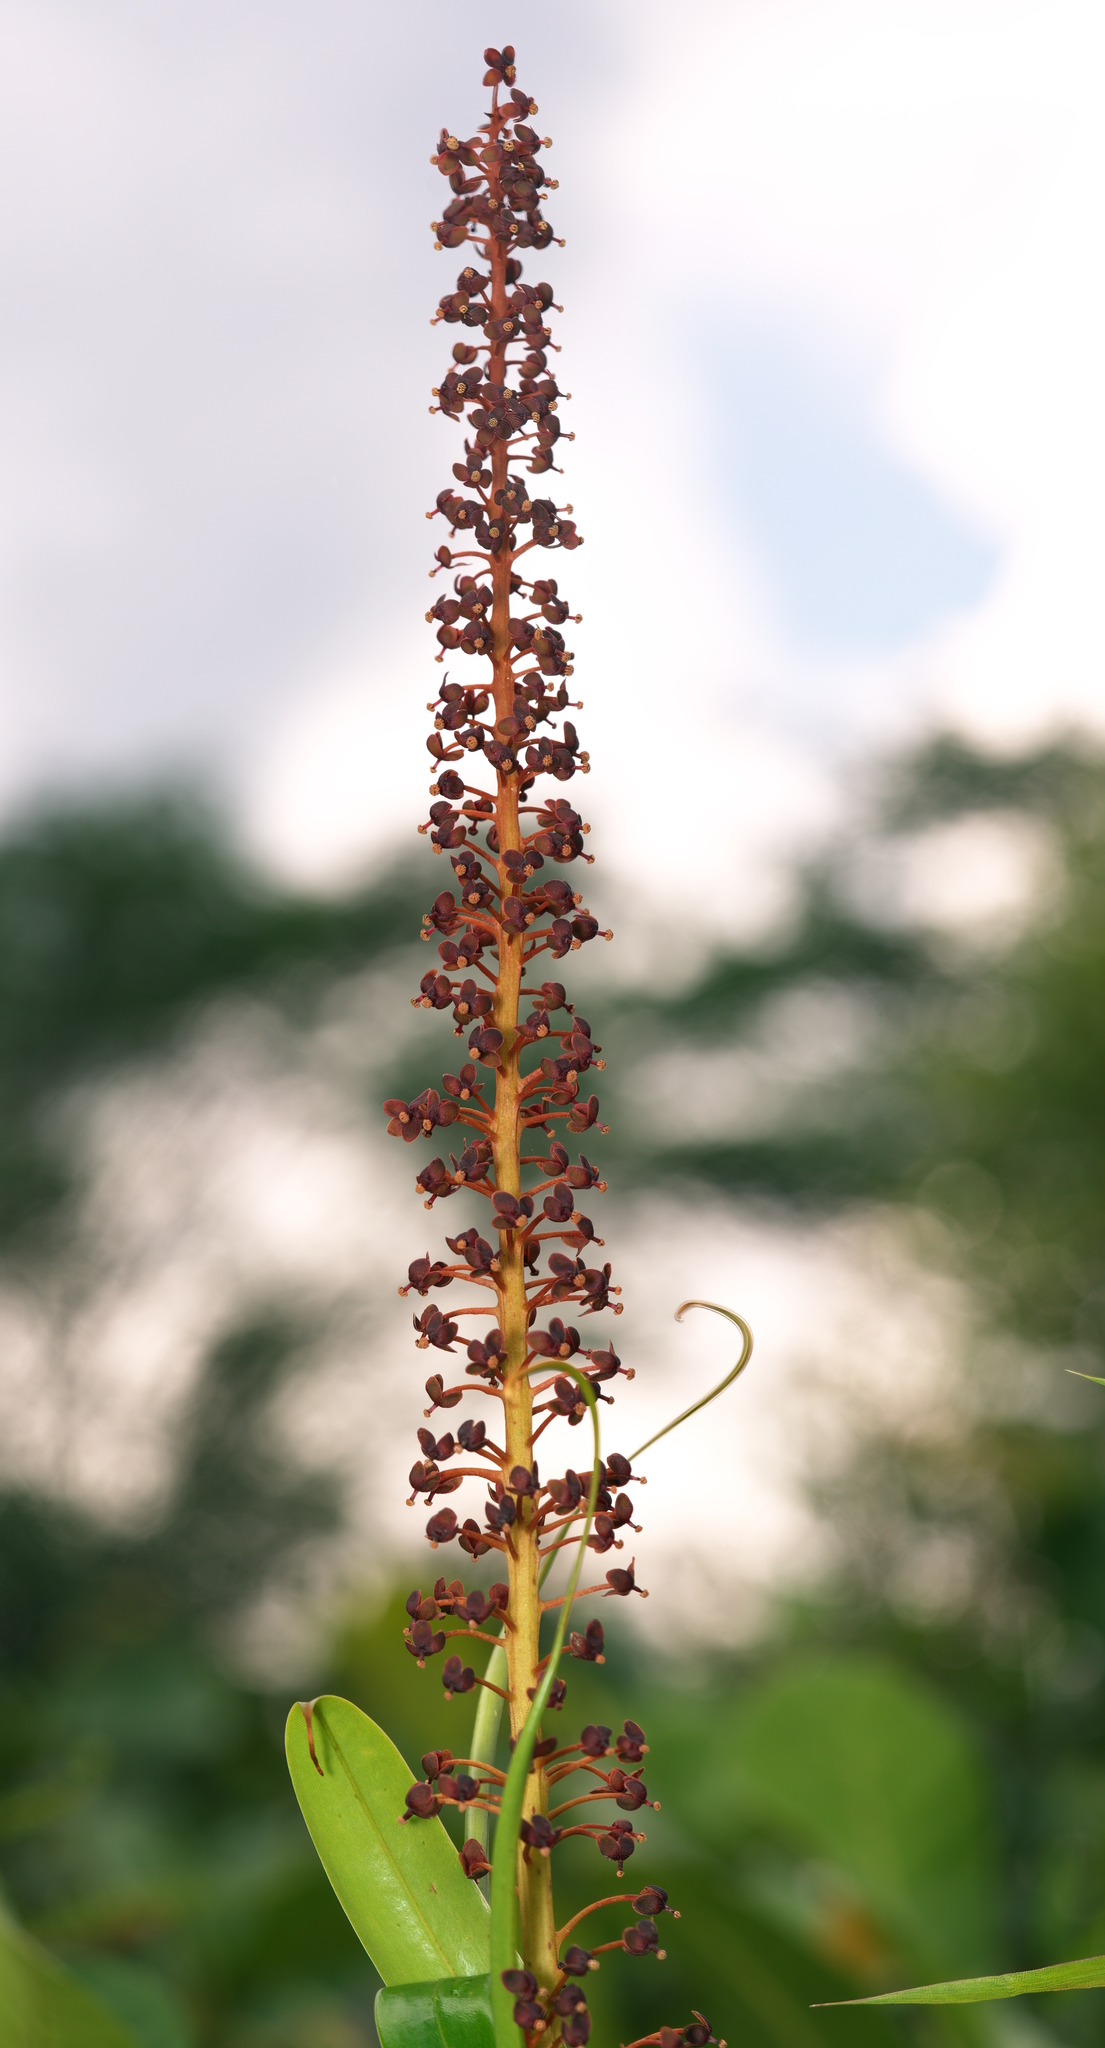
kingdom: Plantae
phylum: Tracheophyta
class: Magnoliopsida
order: Caryophyllales
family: Nepenthaceae
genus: Nepenthes
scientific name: Nepenthes rafflesiana
